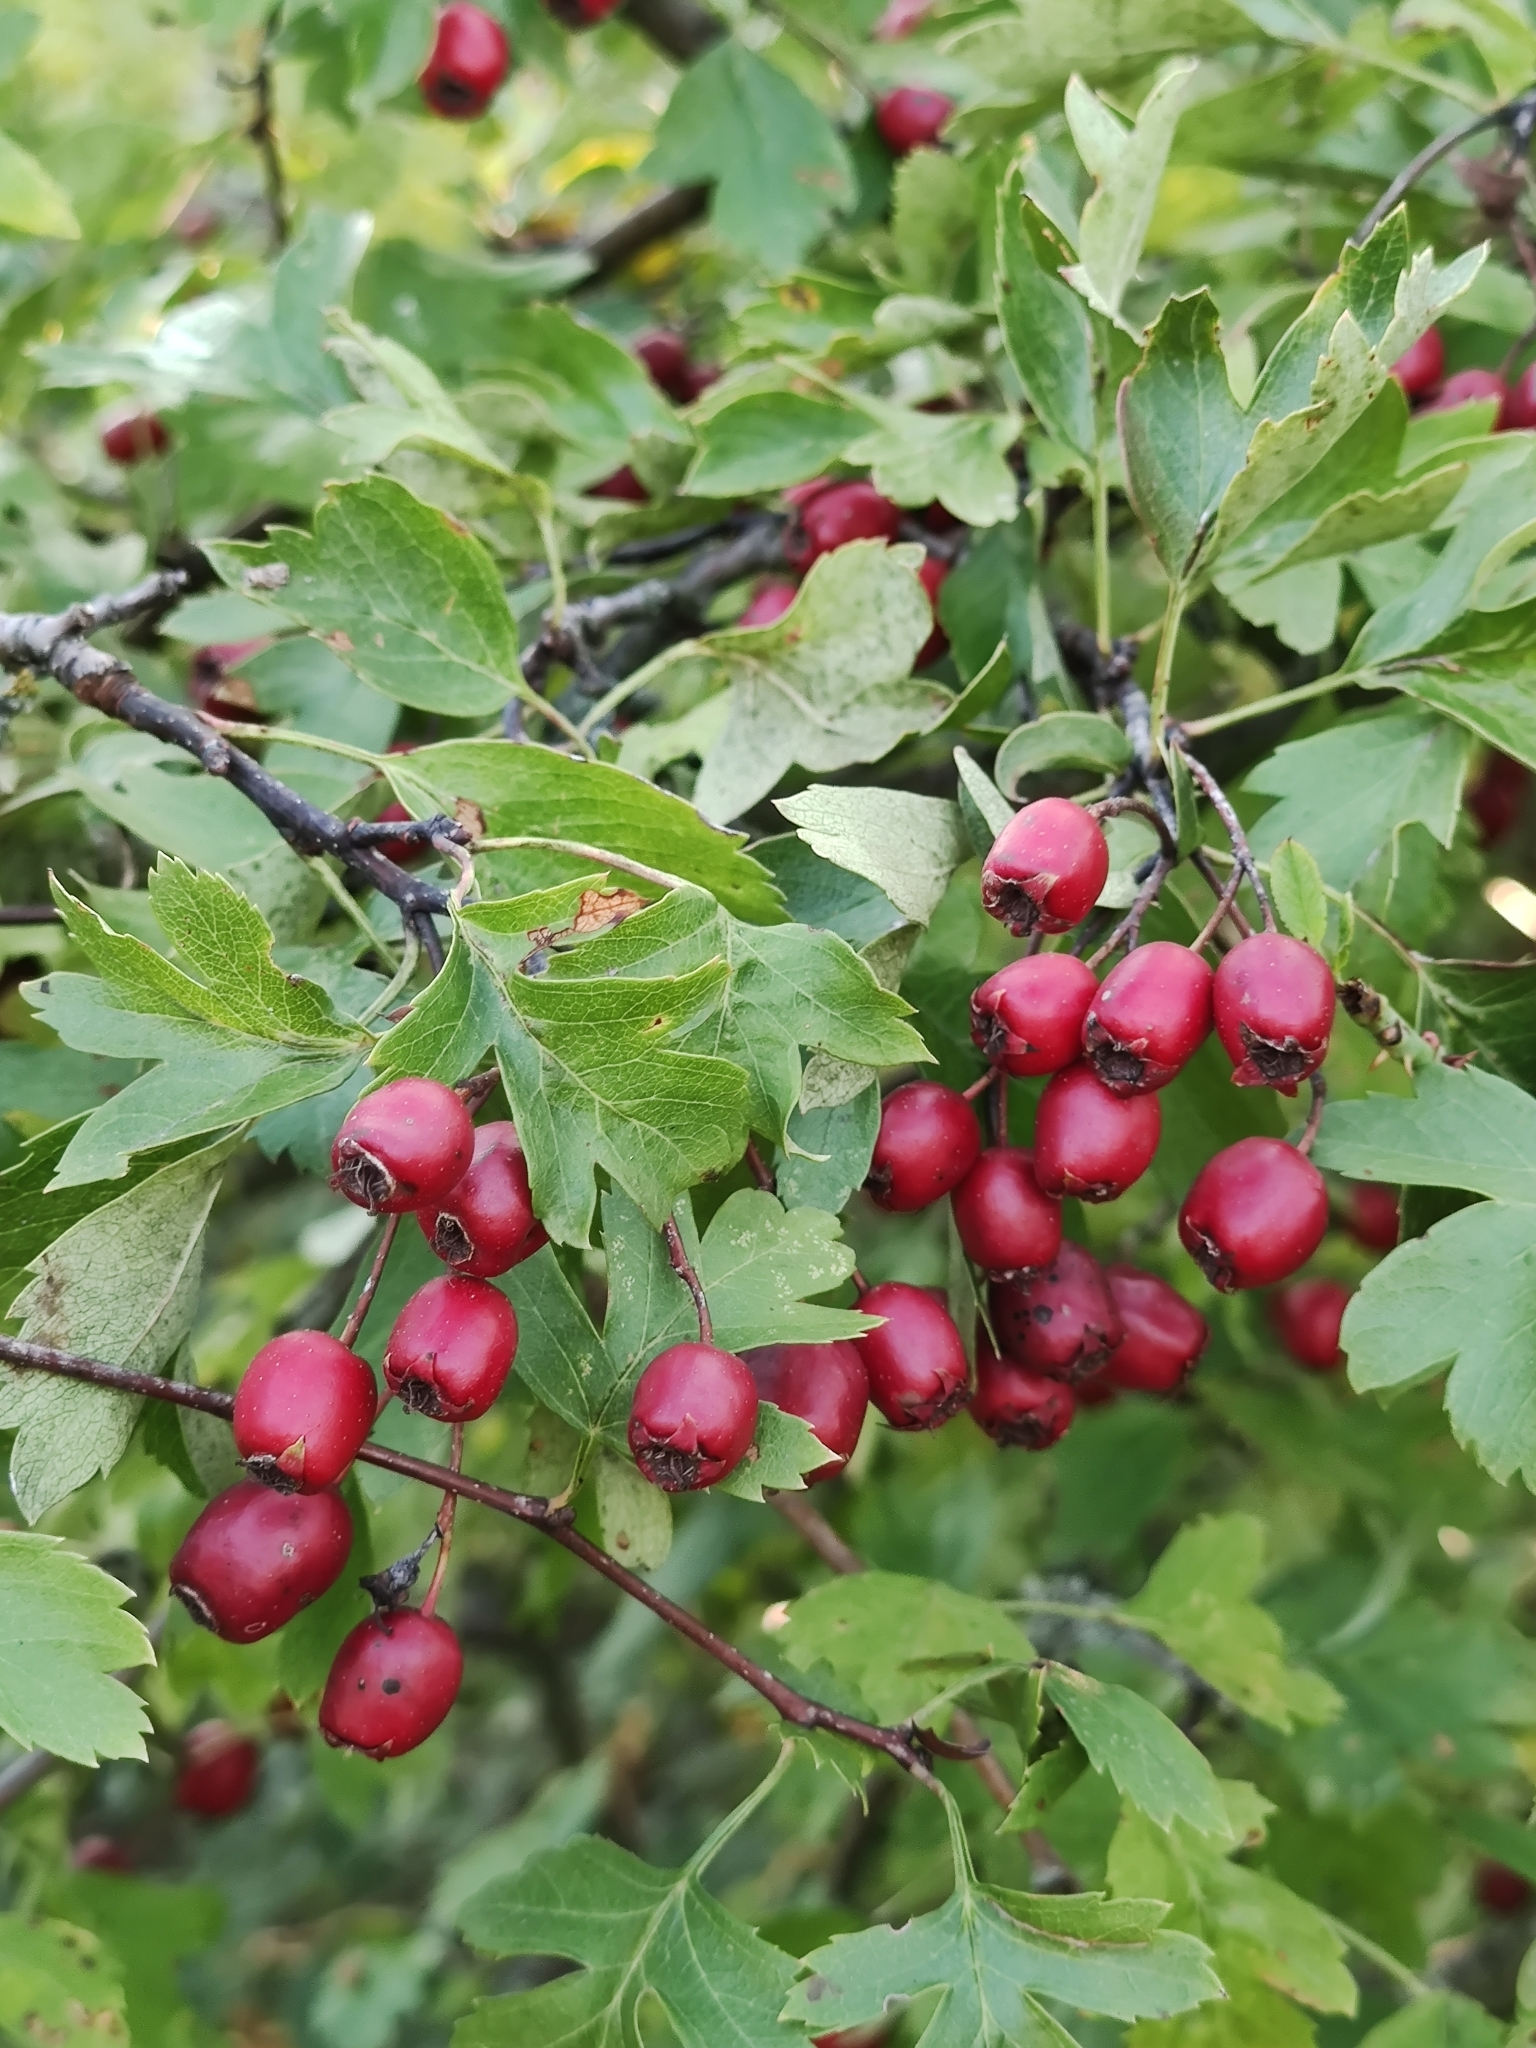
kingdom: Plantae
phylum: Tracheophyta
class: Magnoliopsida
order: Rosales
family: Rosaceae
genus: Crataegus
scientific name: Crataegus monogyna
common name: Hawthorn
